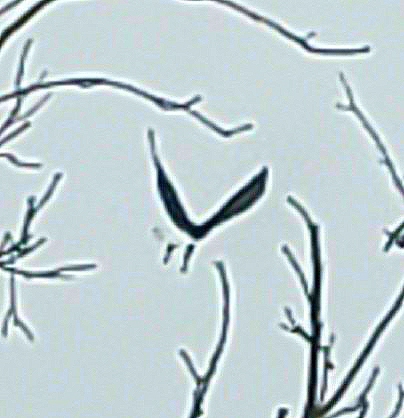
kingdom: Animalia
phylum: Chordata
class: Aves
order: Accipitriformes
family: Accipitridae
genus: Haliaeetus
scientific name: Haliaeetus leucocephalus
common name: Bald eagle
